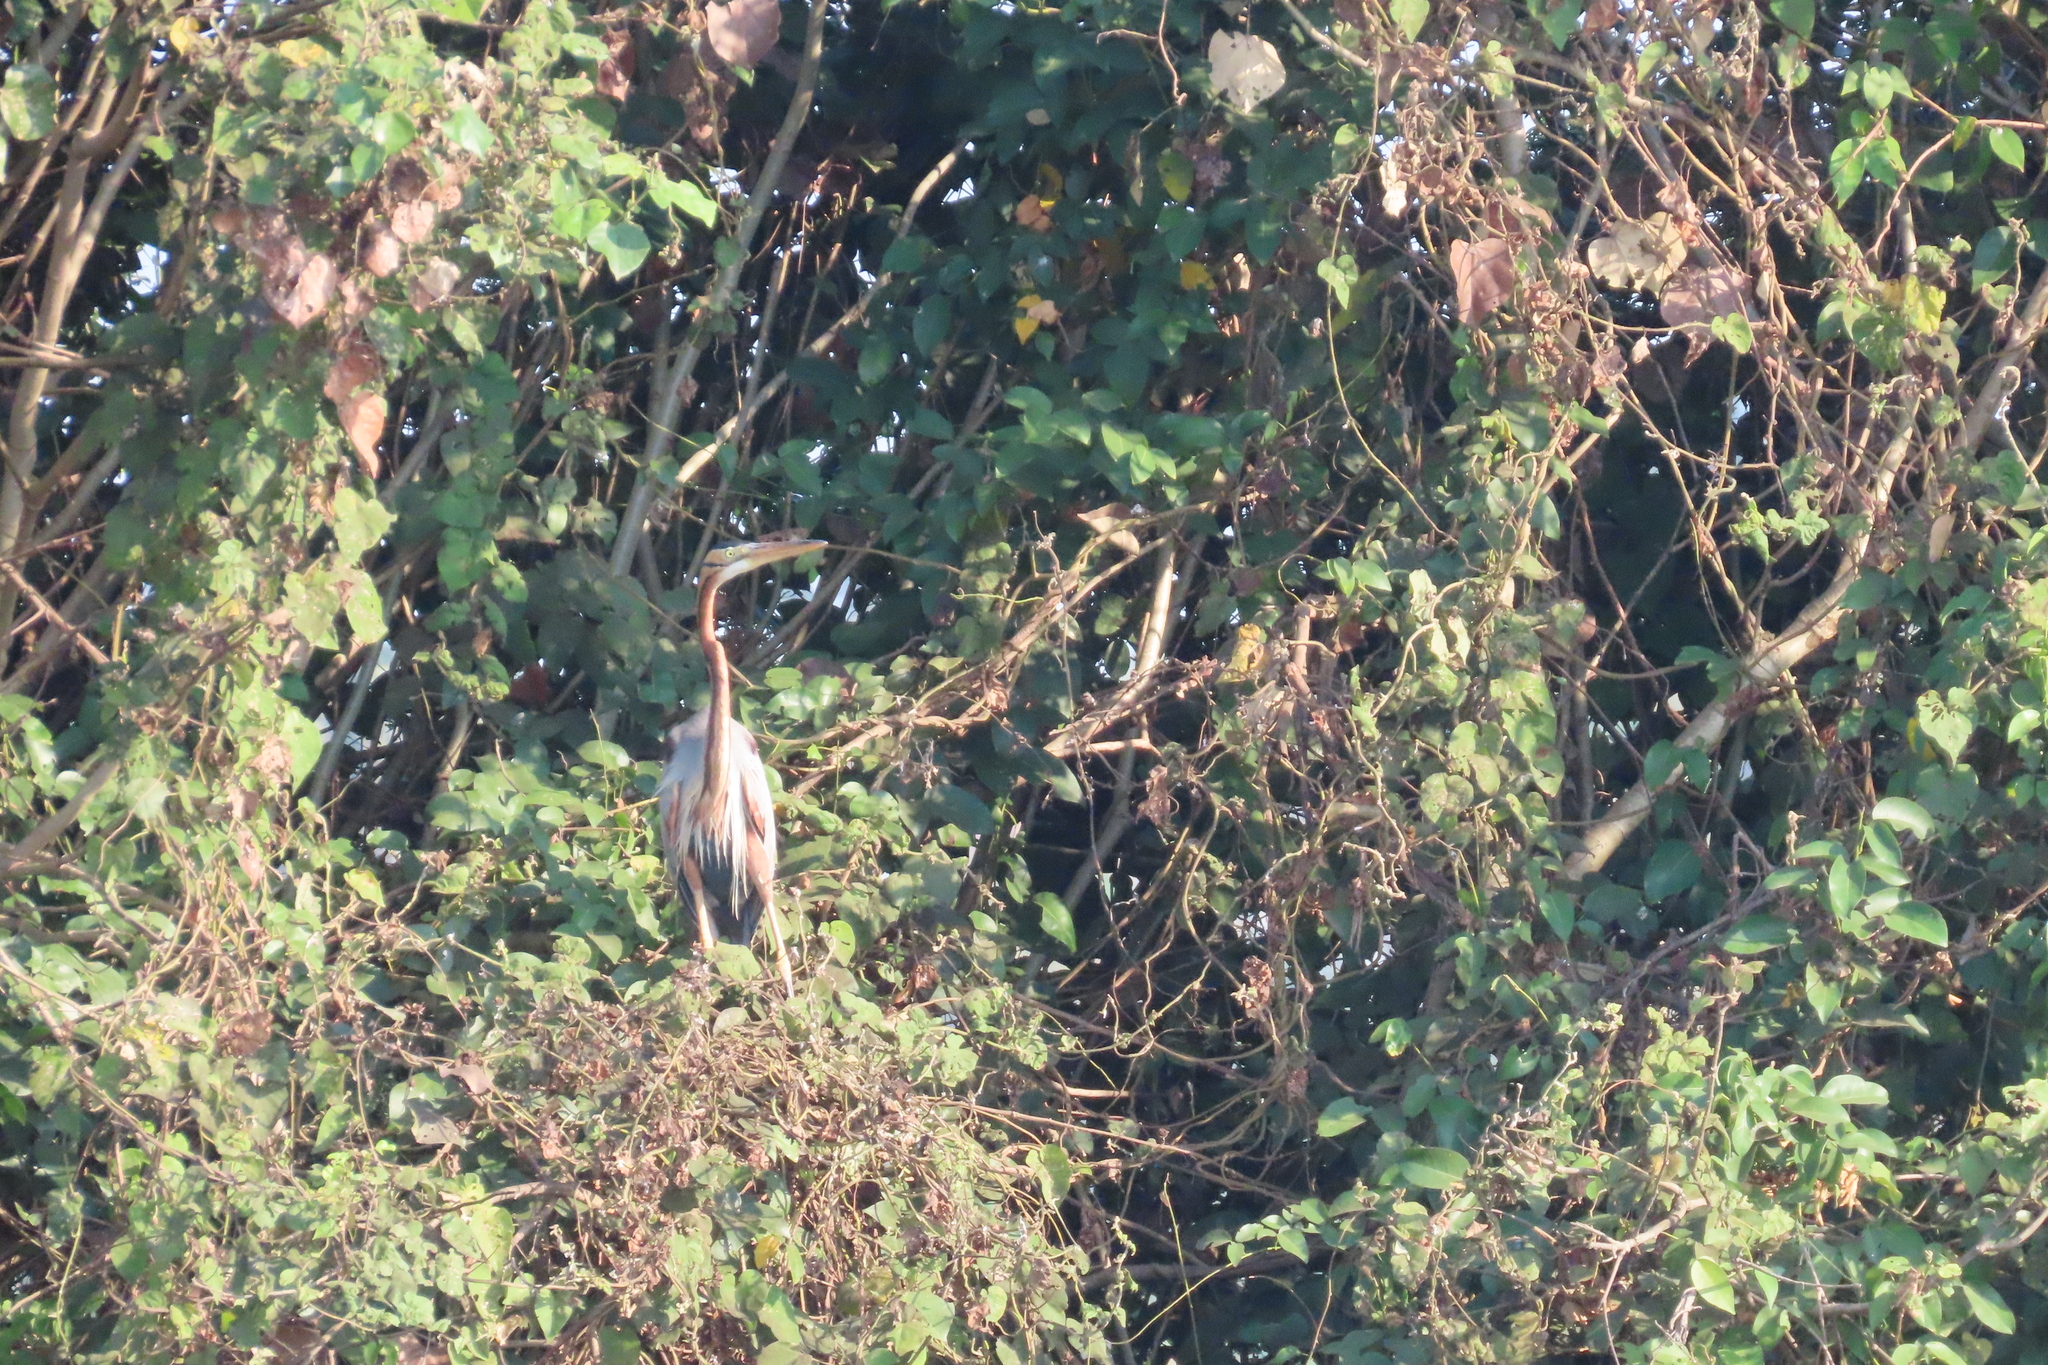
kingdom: Animalia
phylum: Chordata
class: Aves
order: Pelecaniformes
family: Ardeidae
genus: Ardea
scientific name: Ardea purpurea
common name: Purple heron
